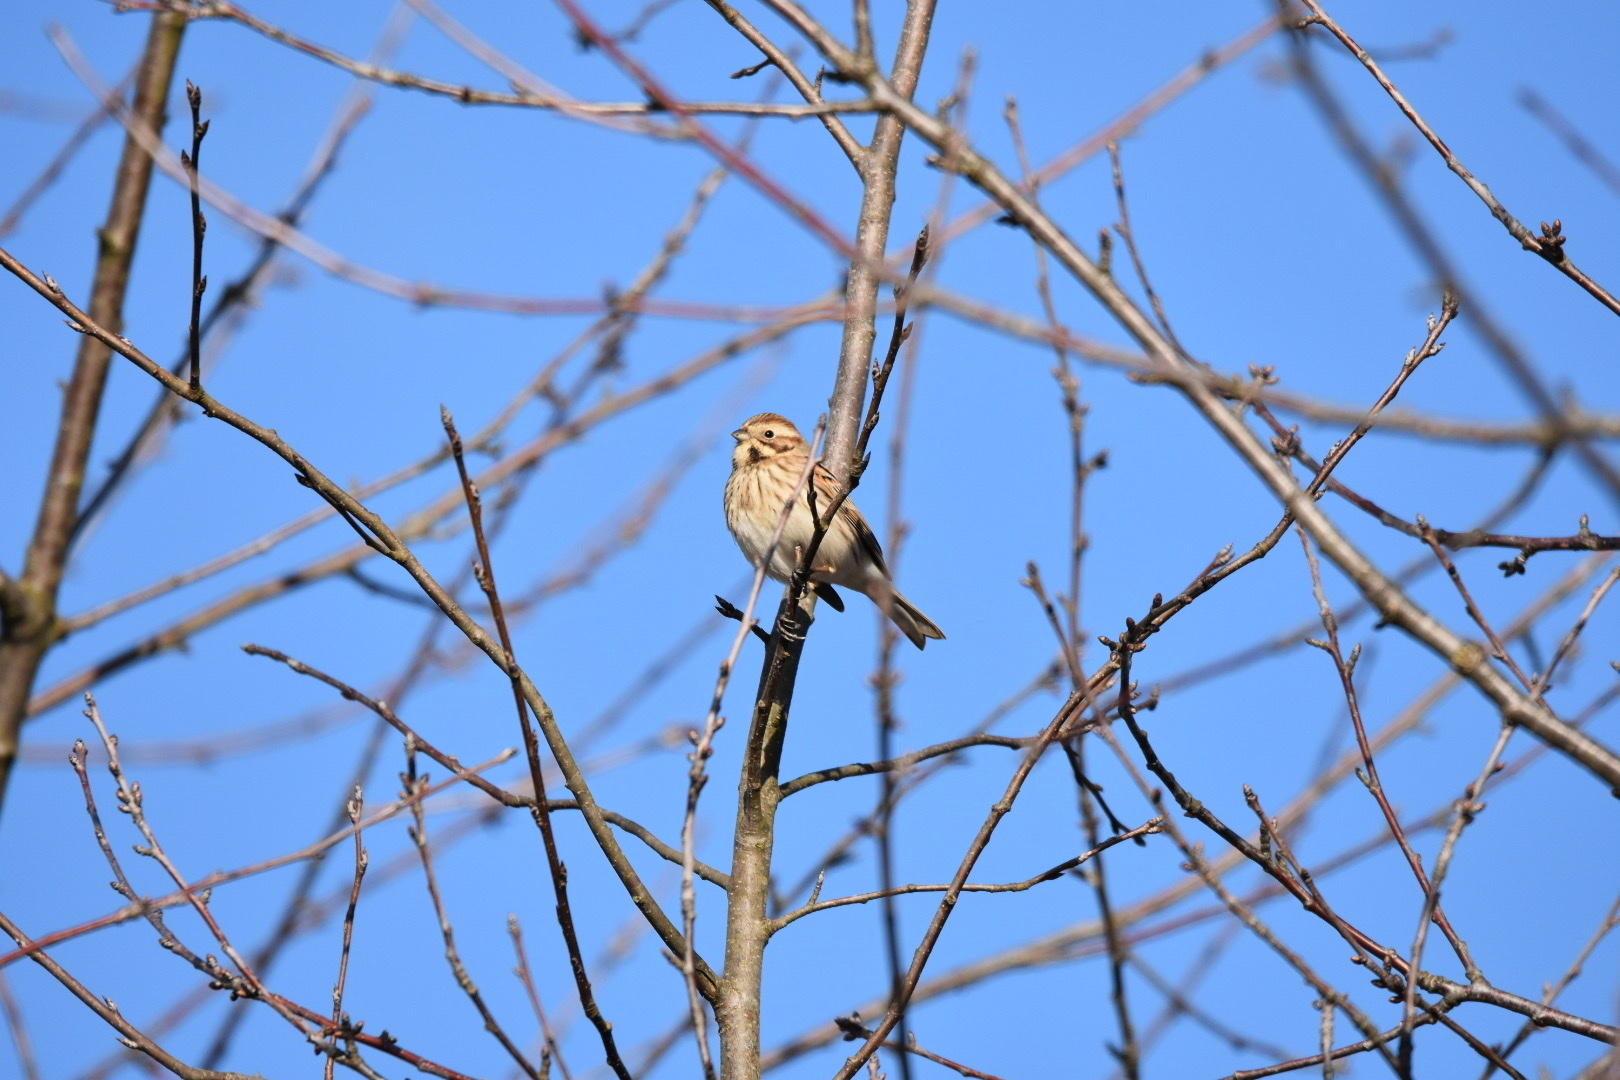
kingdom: Animalia
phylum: Chordata
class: Aves
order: Passeriformes
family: Emberizidae
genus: Emberiza
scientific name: Emberiza schoeniclus
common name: Reed bunting
